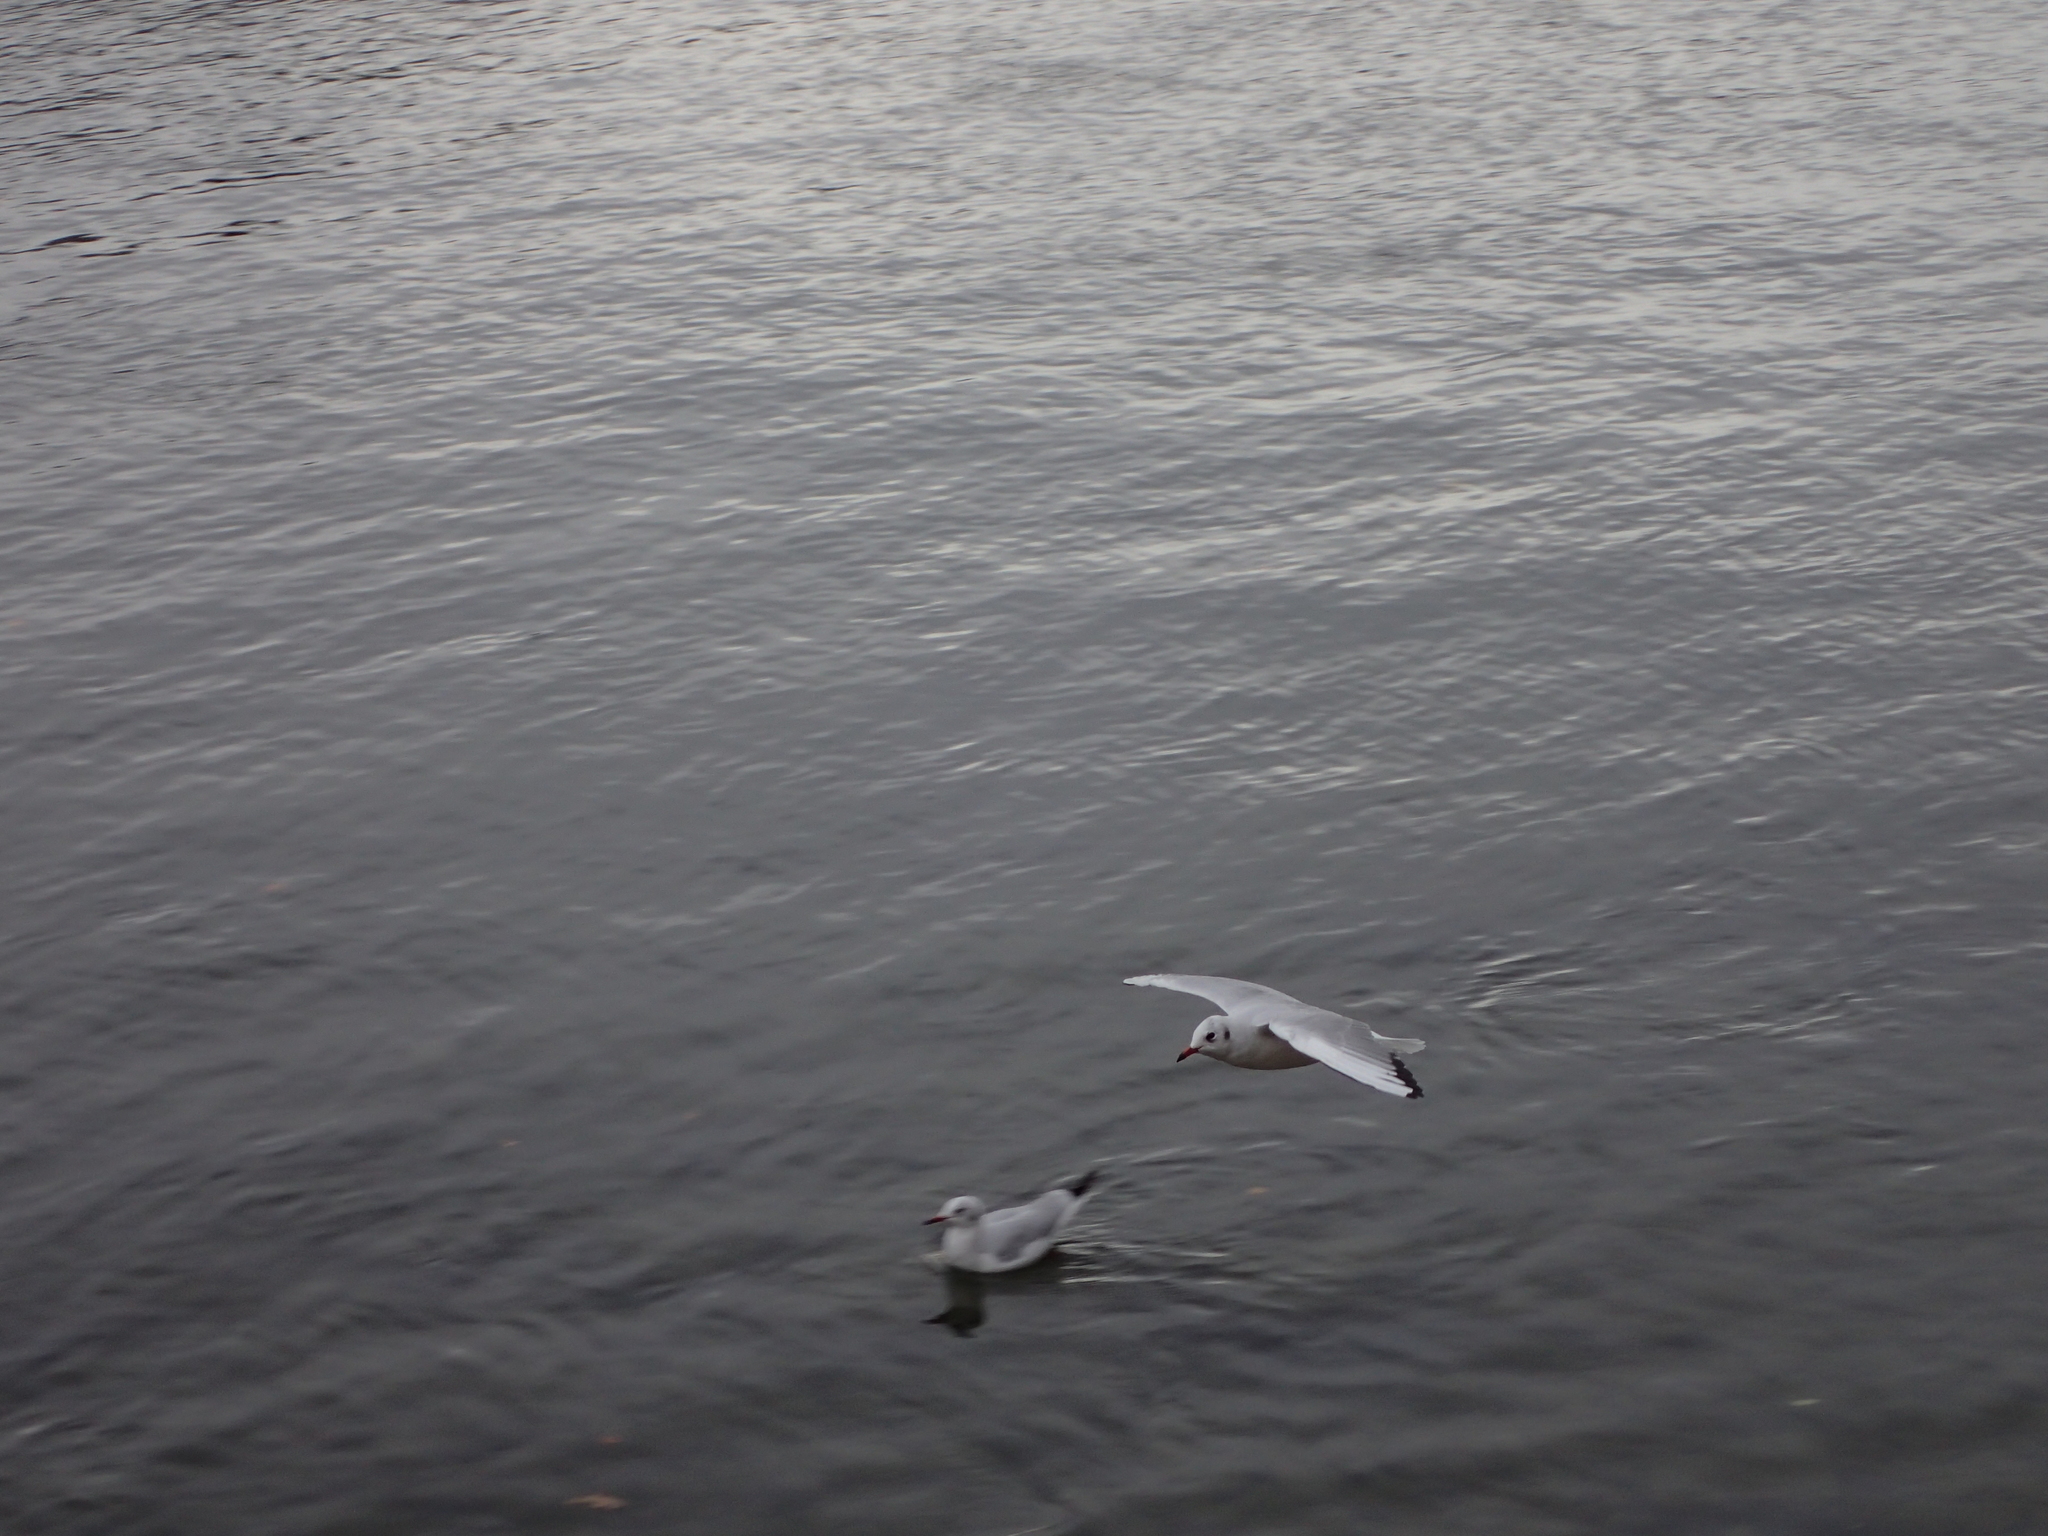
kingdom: Animalia
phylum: Chordata
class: Aves
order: Charadriiformes
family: Laridae
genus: Chroicocephalus
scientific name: Chroicocephalus ridibundus
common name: Black-headed gull
